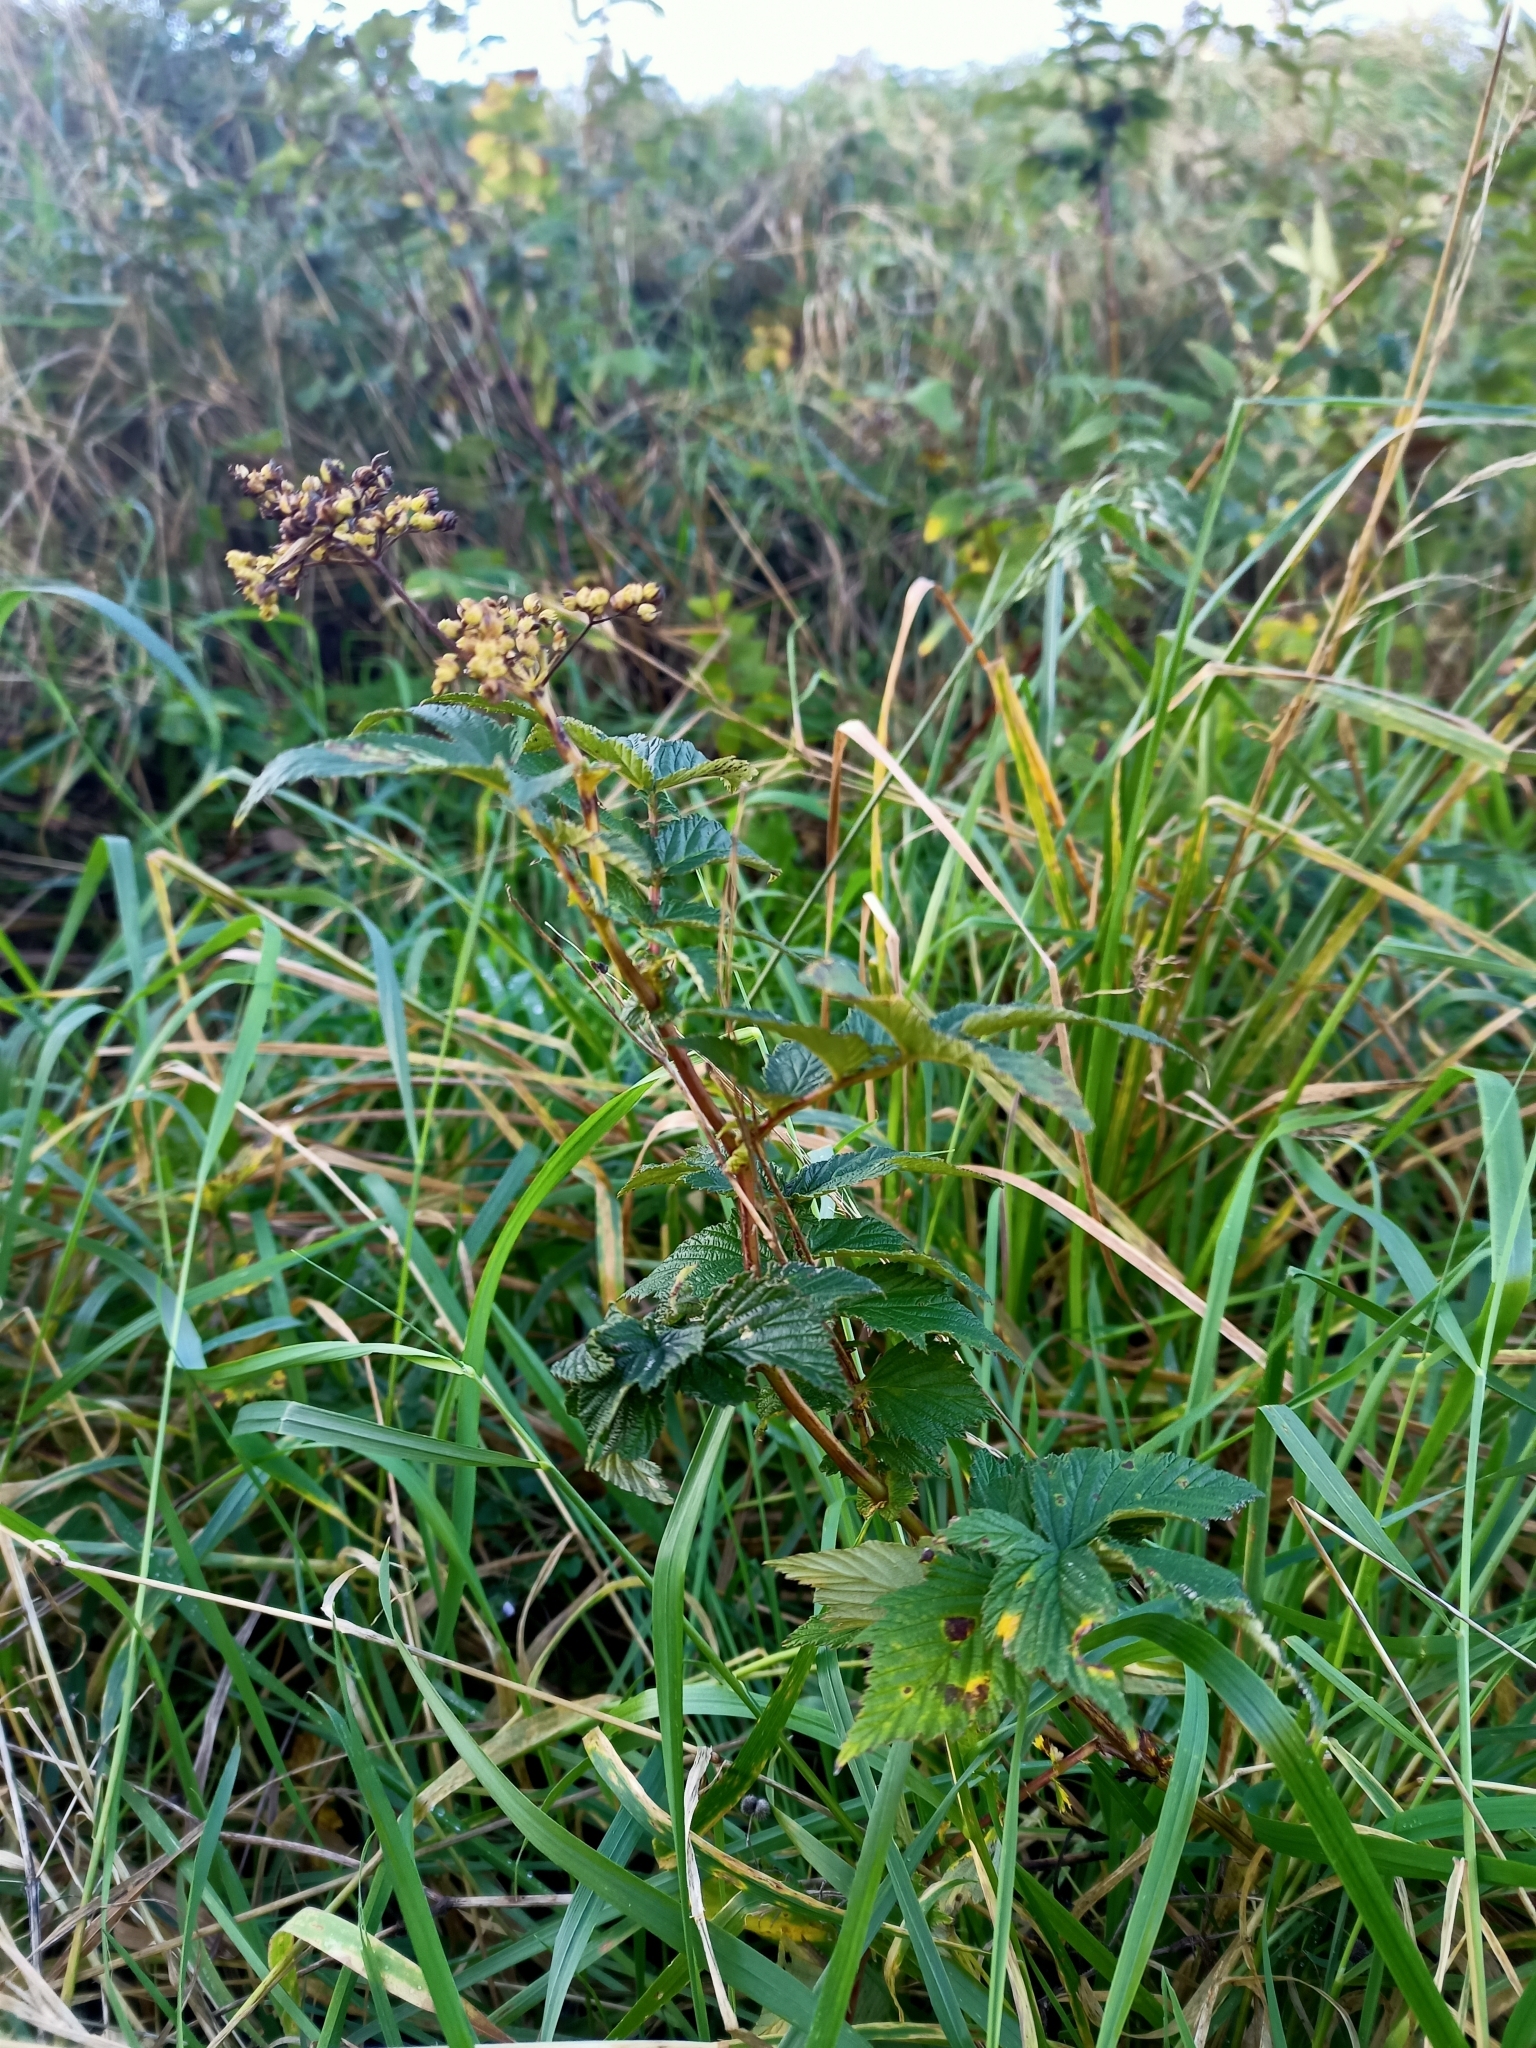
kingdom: Plantae
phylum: Tracheophyta
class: Magnoliopsida
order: Rosales
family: Rosaceae
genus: Filipendula
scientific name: Filipendula ulmaria
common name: Meadowsweet
